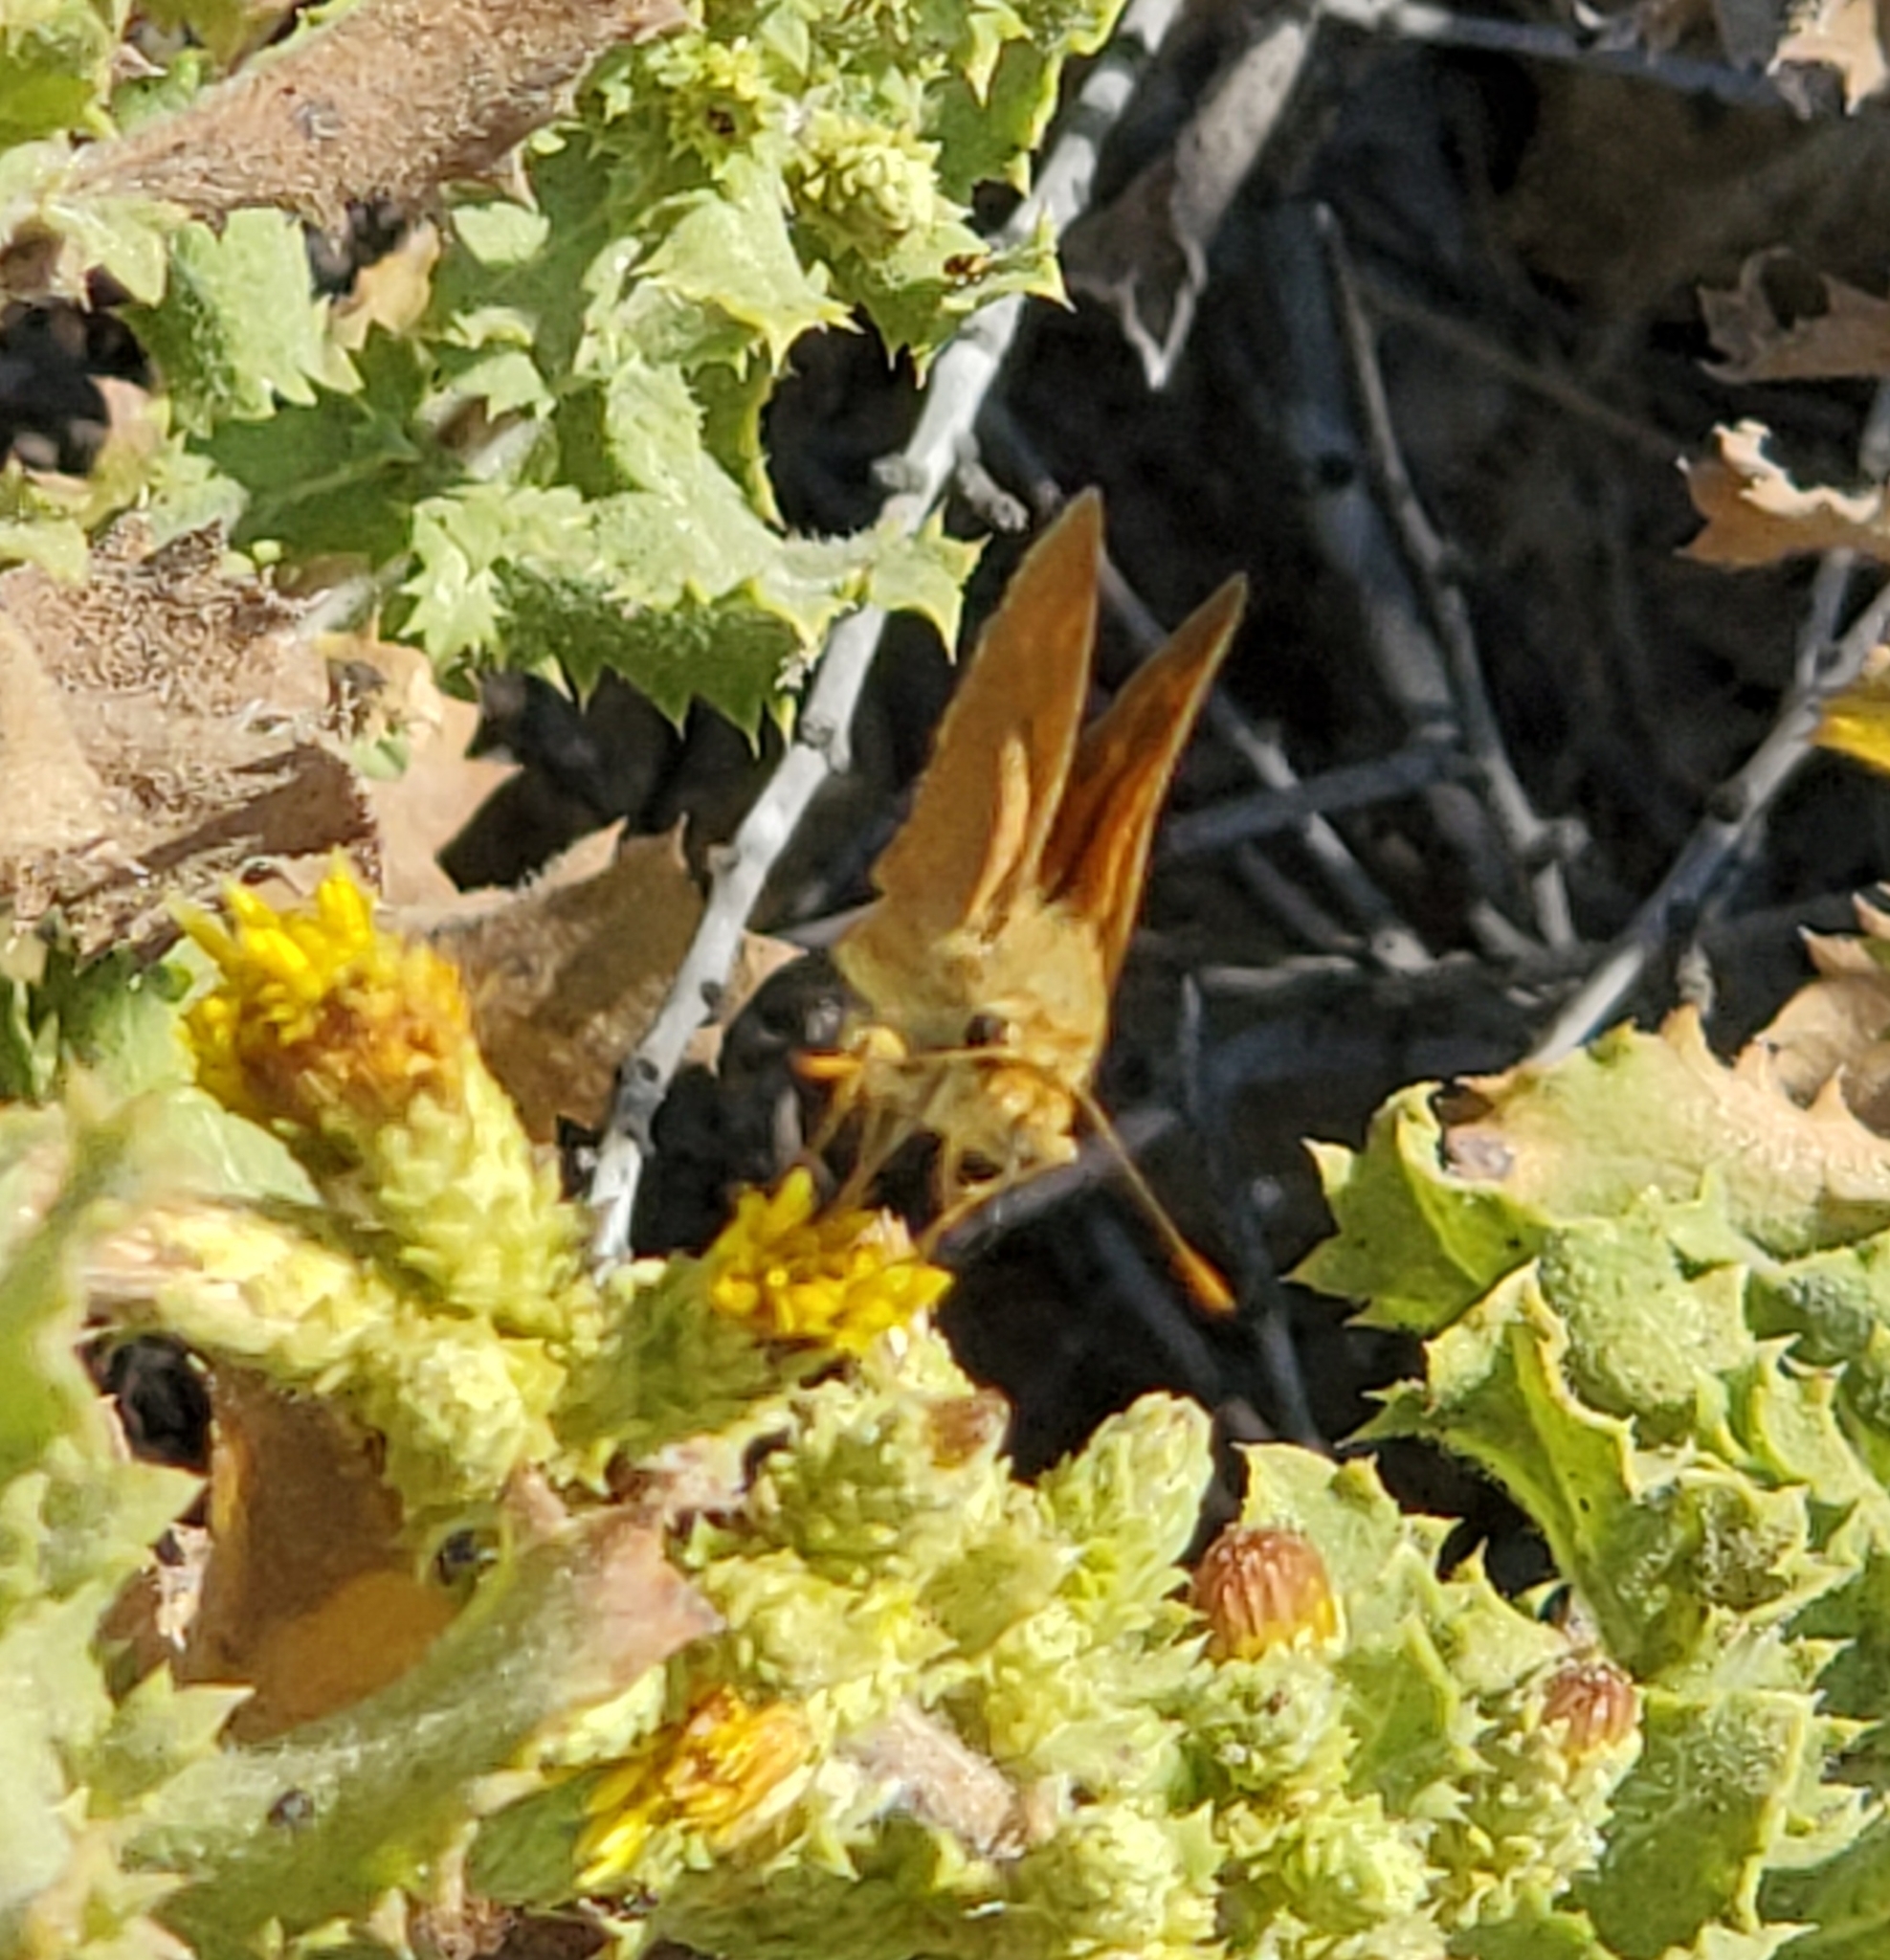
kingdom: Animalia
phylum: Arthropoda
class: Insecta
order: Lepidoptera
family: Hesperiidae
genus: Ochlodes
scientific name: Ochlodes sylvanoides
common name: Woodland skipper
